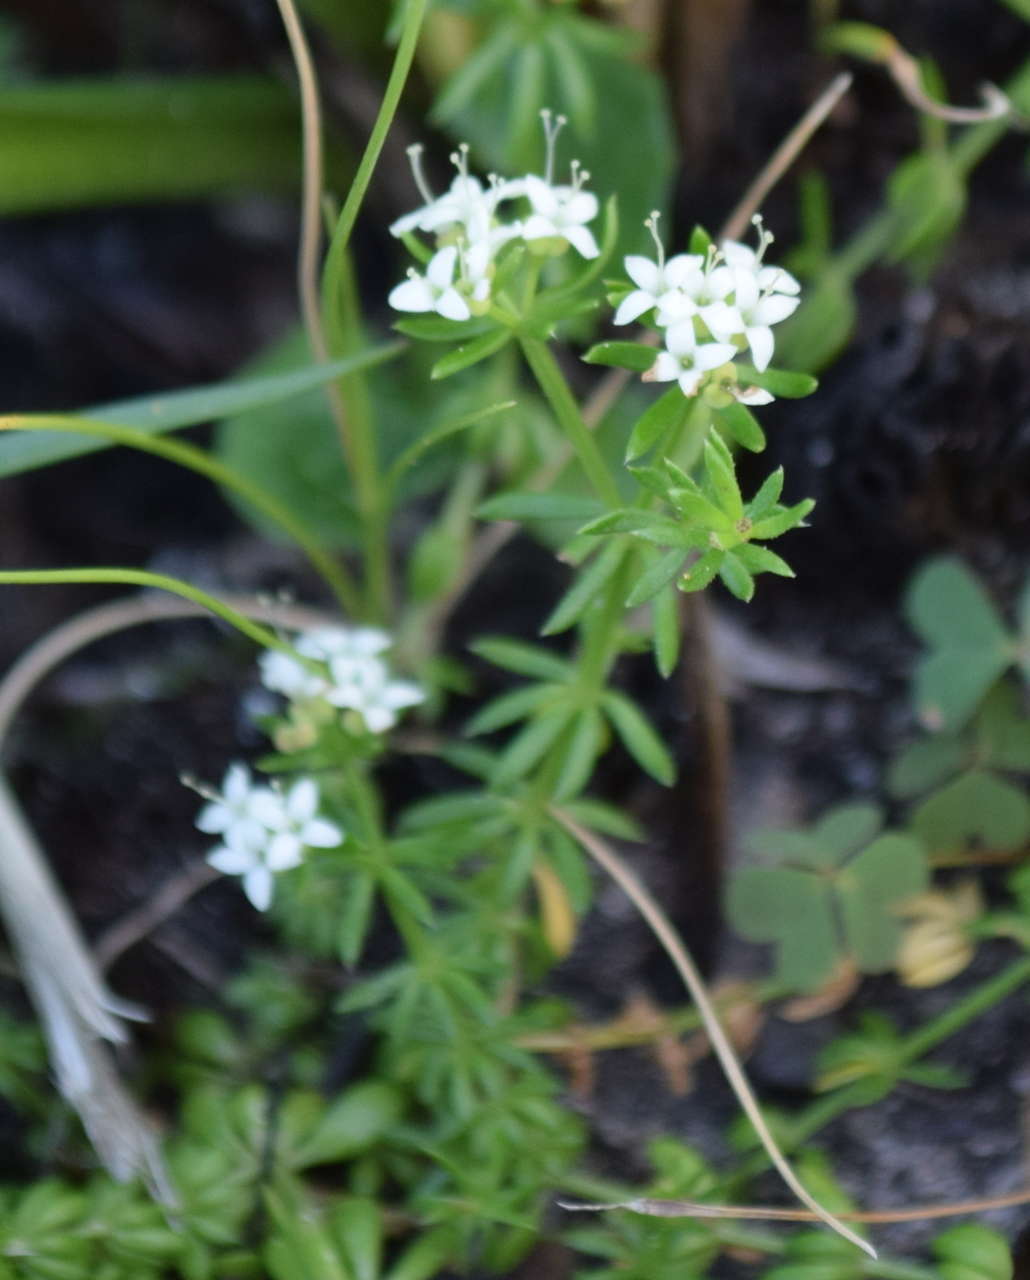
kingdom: Plantae
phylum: Tracheophyta
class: Magnoliopsida
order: Gentianales
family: Rubiaceae
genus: Asperula
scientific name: Asperula conferta
